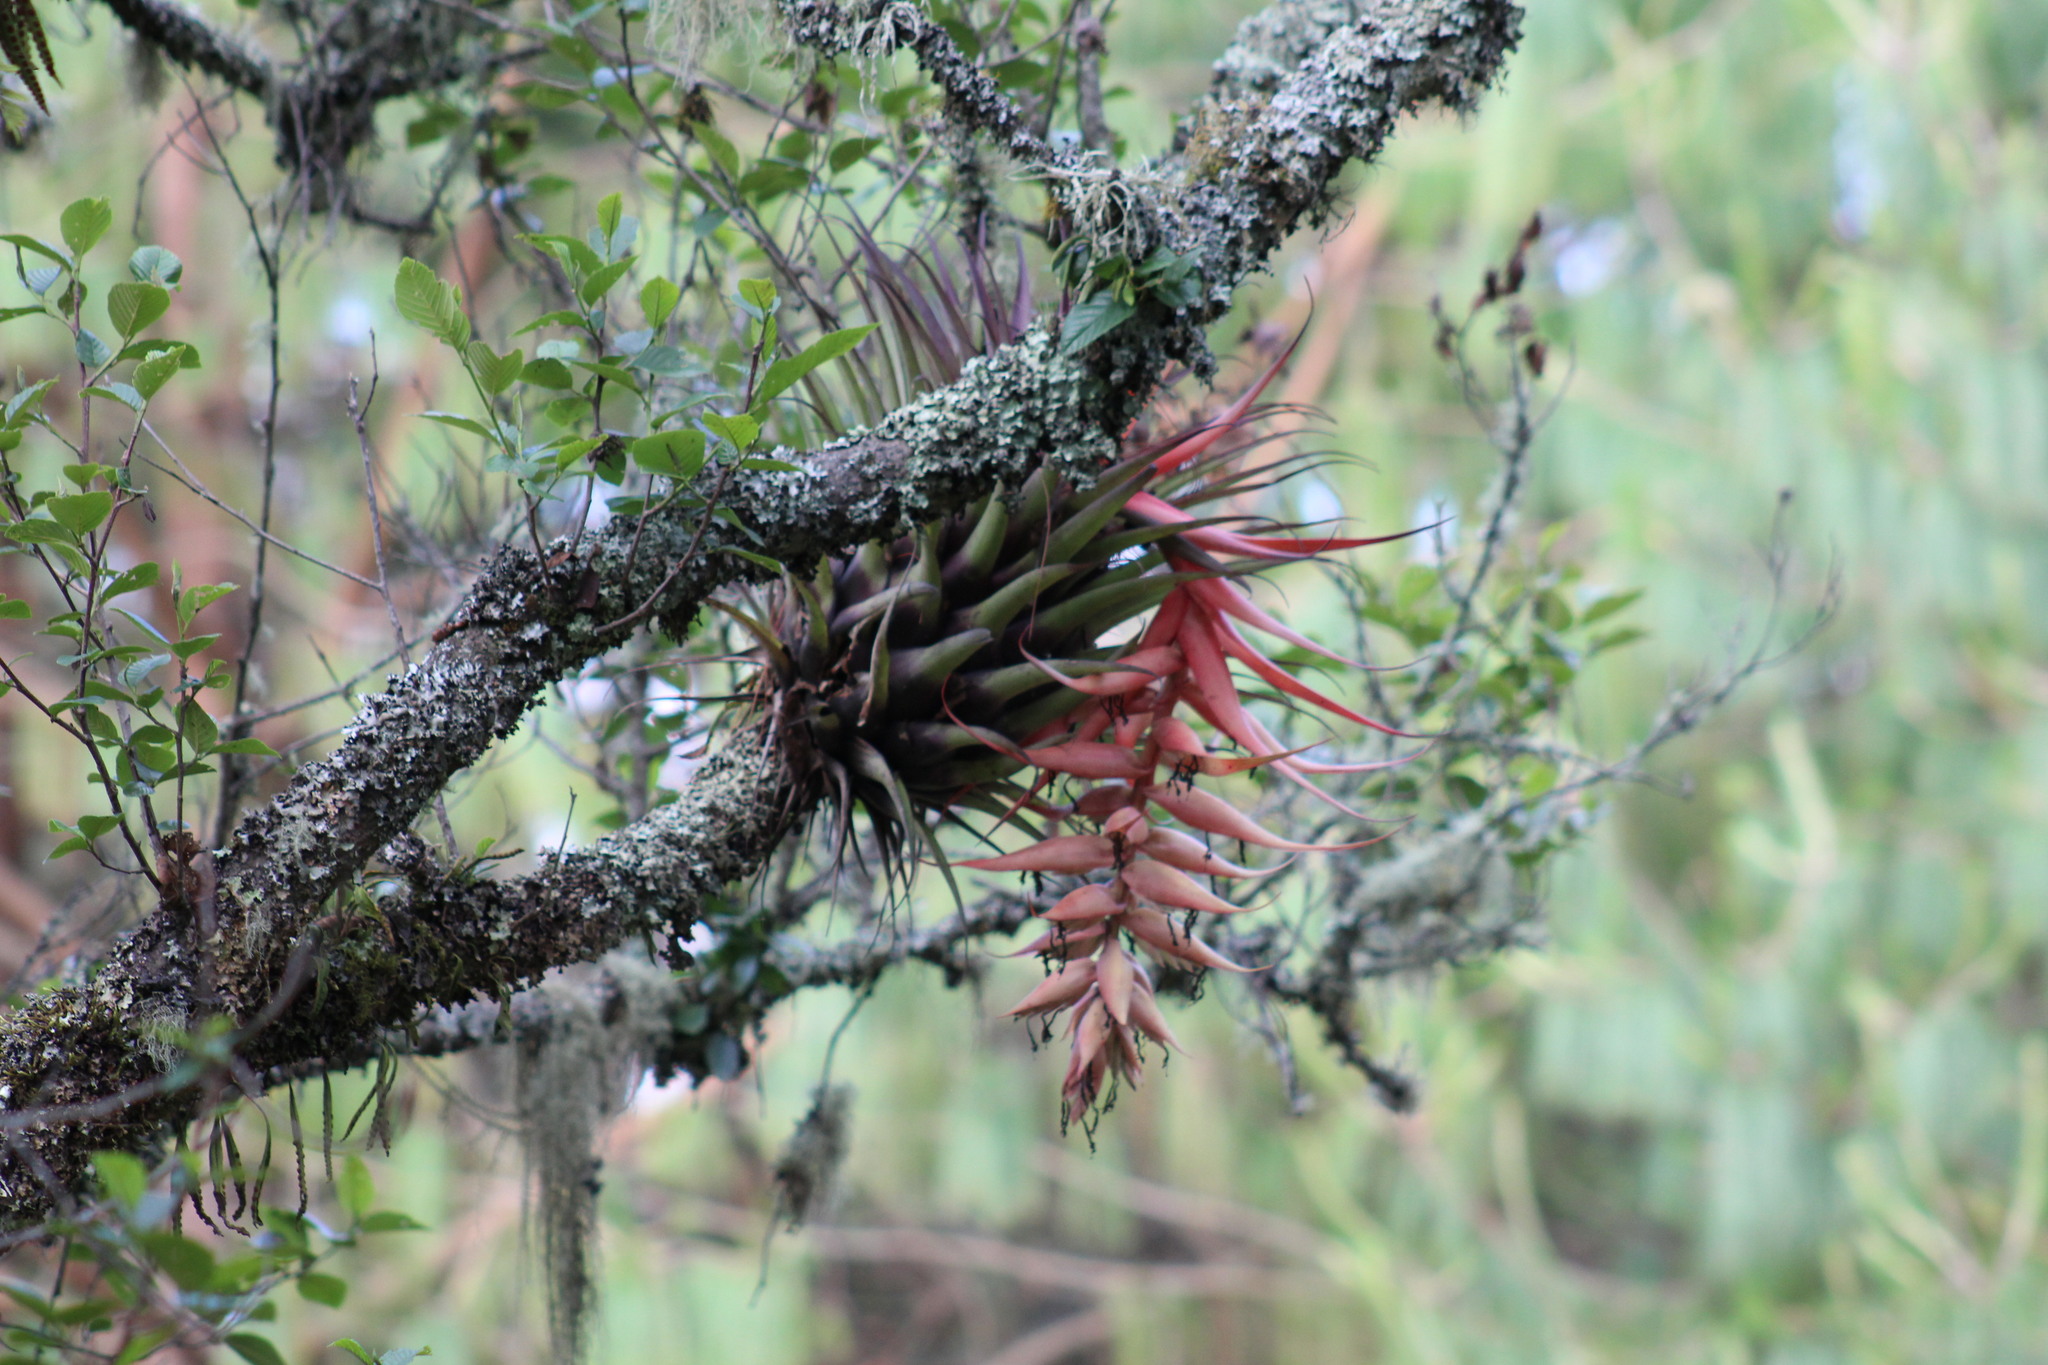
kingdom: Plantae
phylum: Tracheophyta
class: Liliopsida
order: Poales
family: Bromeliaceae
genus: Tillandsia
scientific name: Tillandsia violacea
